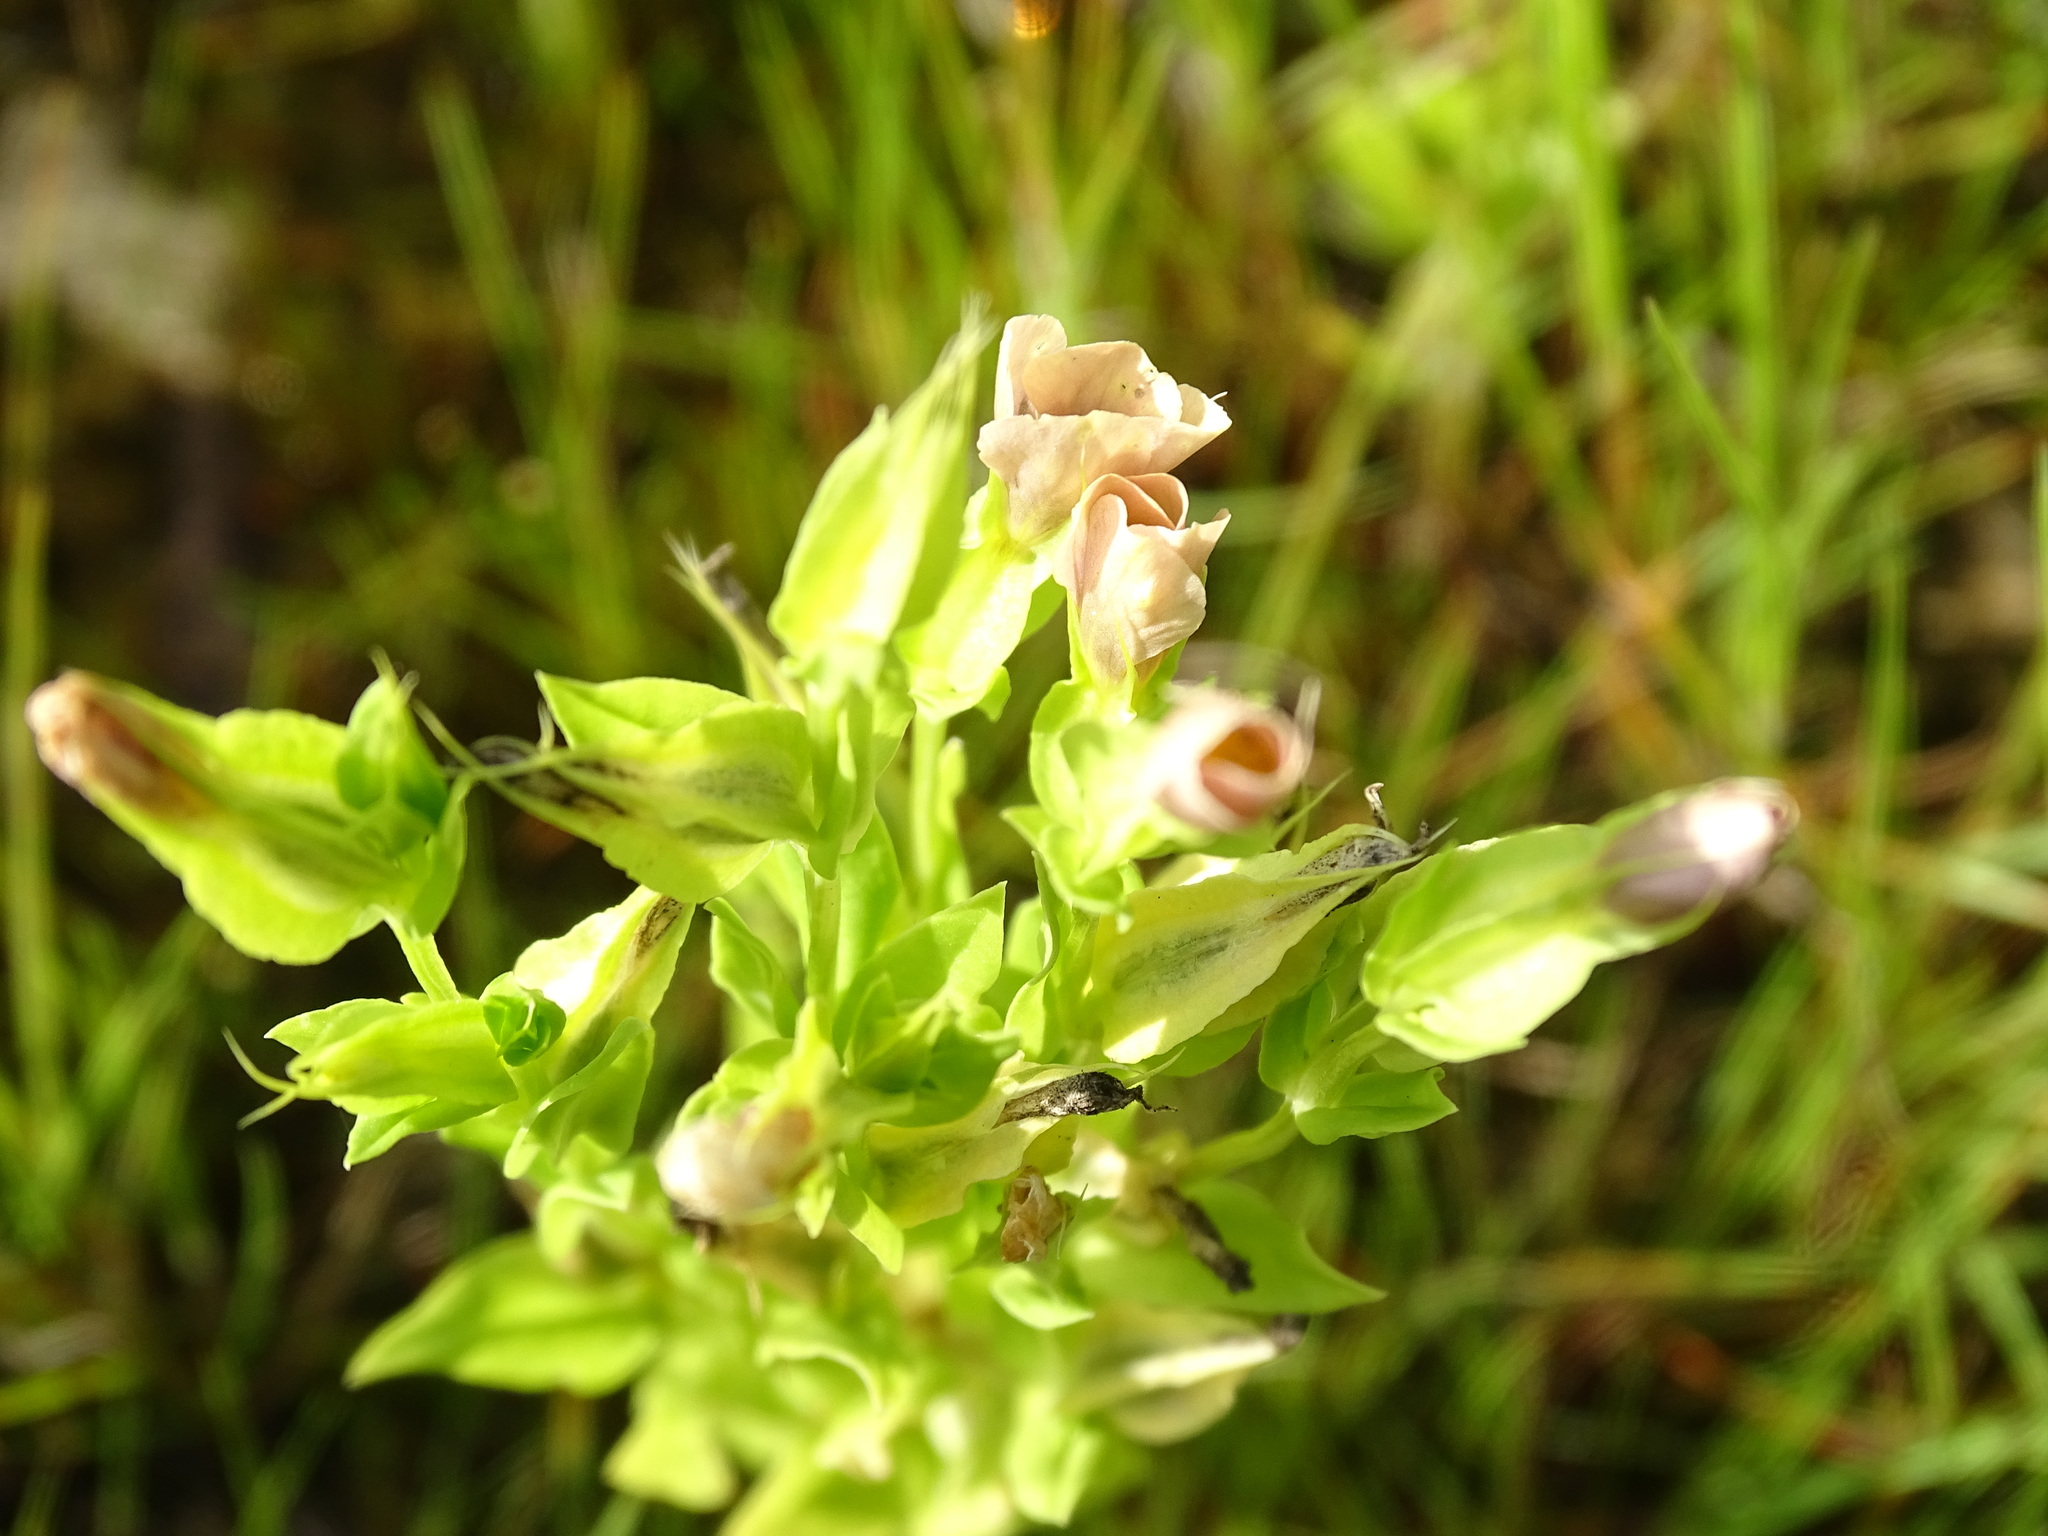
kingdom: Plantae
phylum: Tracheophyta
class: Magnoliopsida
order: Gentianales
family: Gentianaceae
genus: Schultesia
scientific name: Schultesia brachyptera
